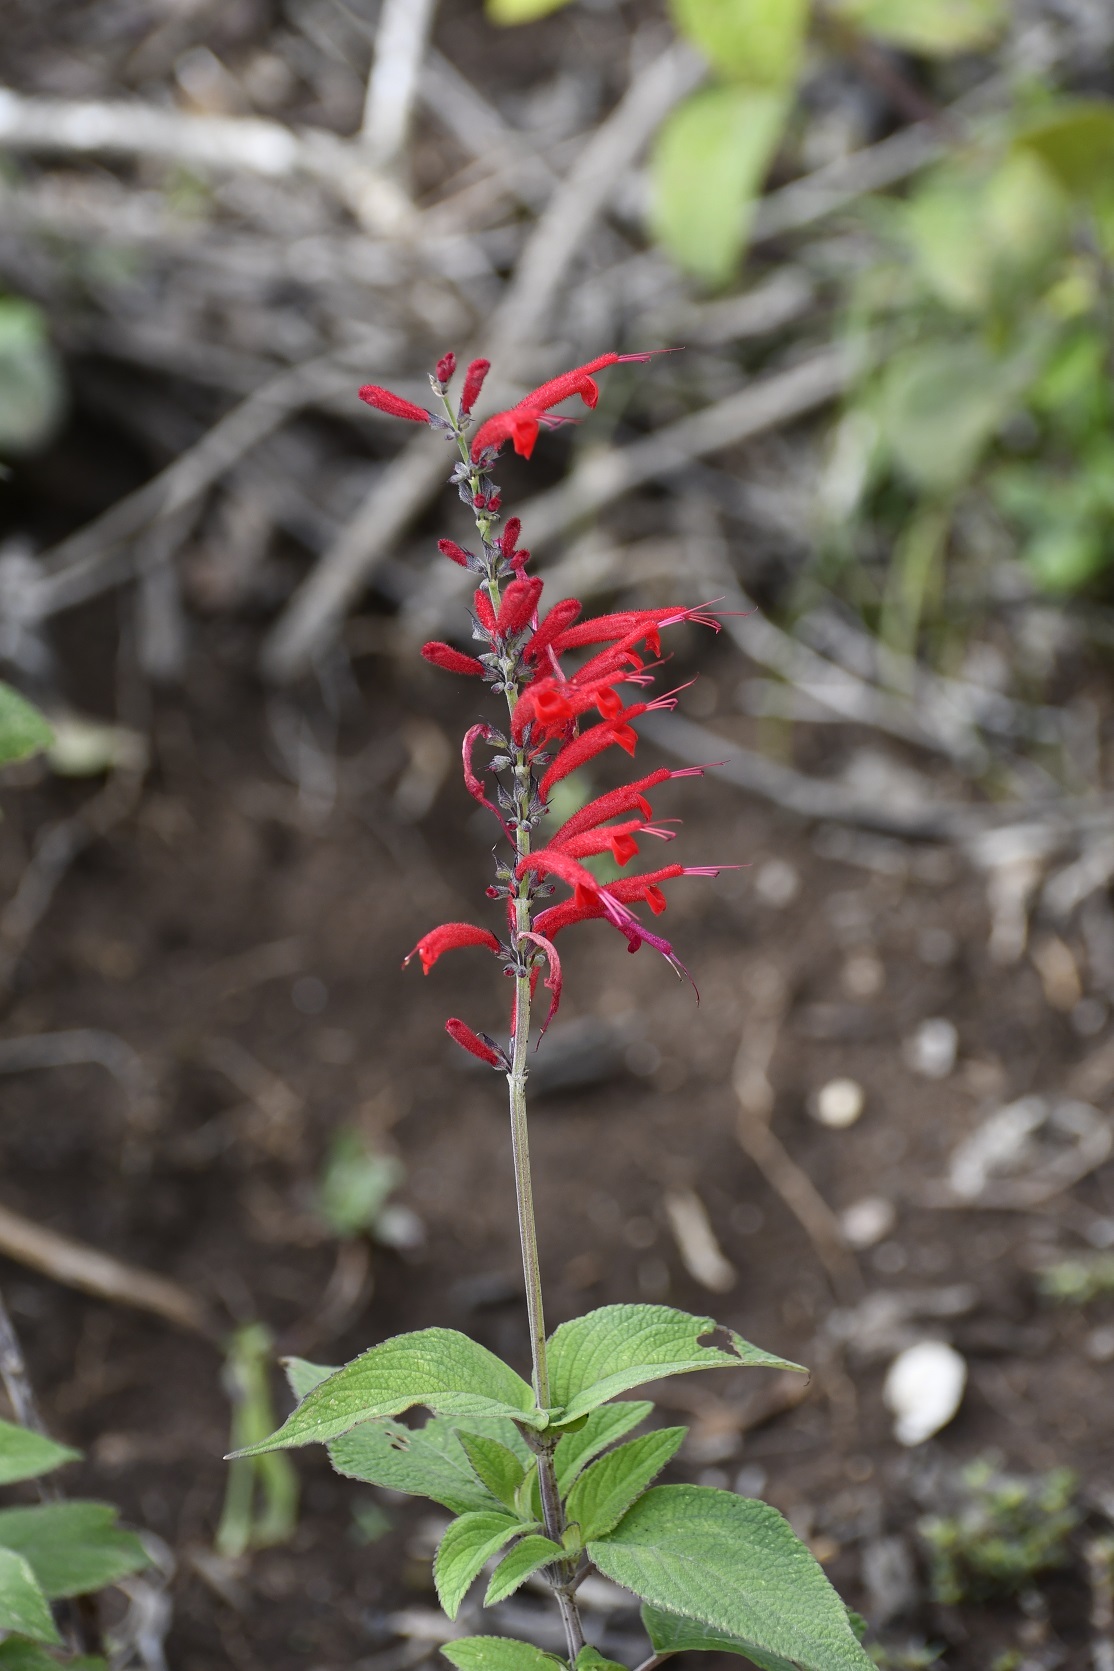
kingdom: Plantae
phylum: Tracheophyta
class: Magnoliopsida
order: Lamiales
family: Lamiaceae
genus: Salvia
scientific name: Salvia cinnabarina
